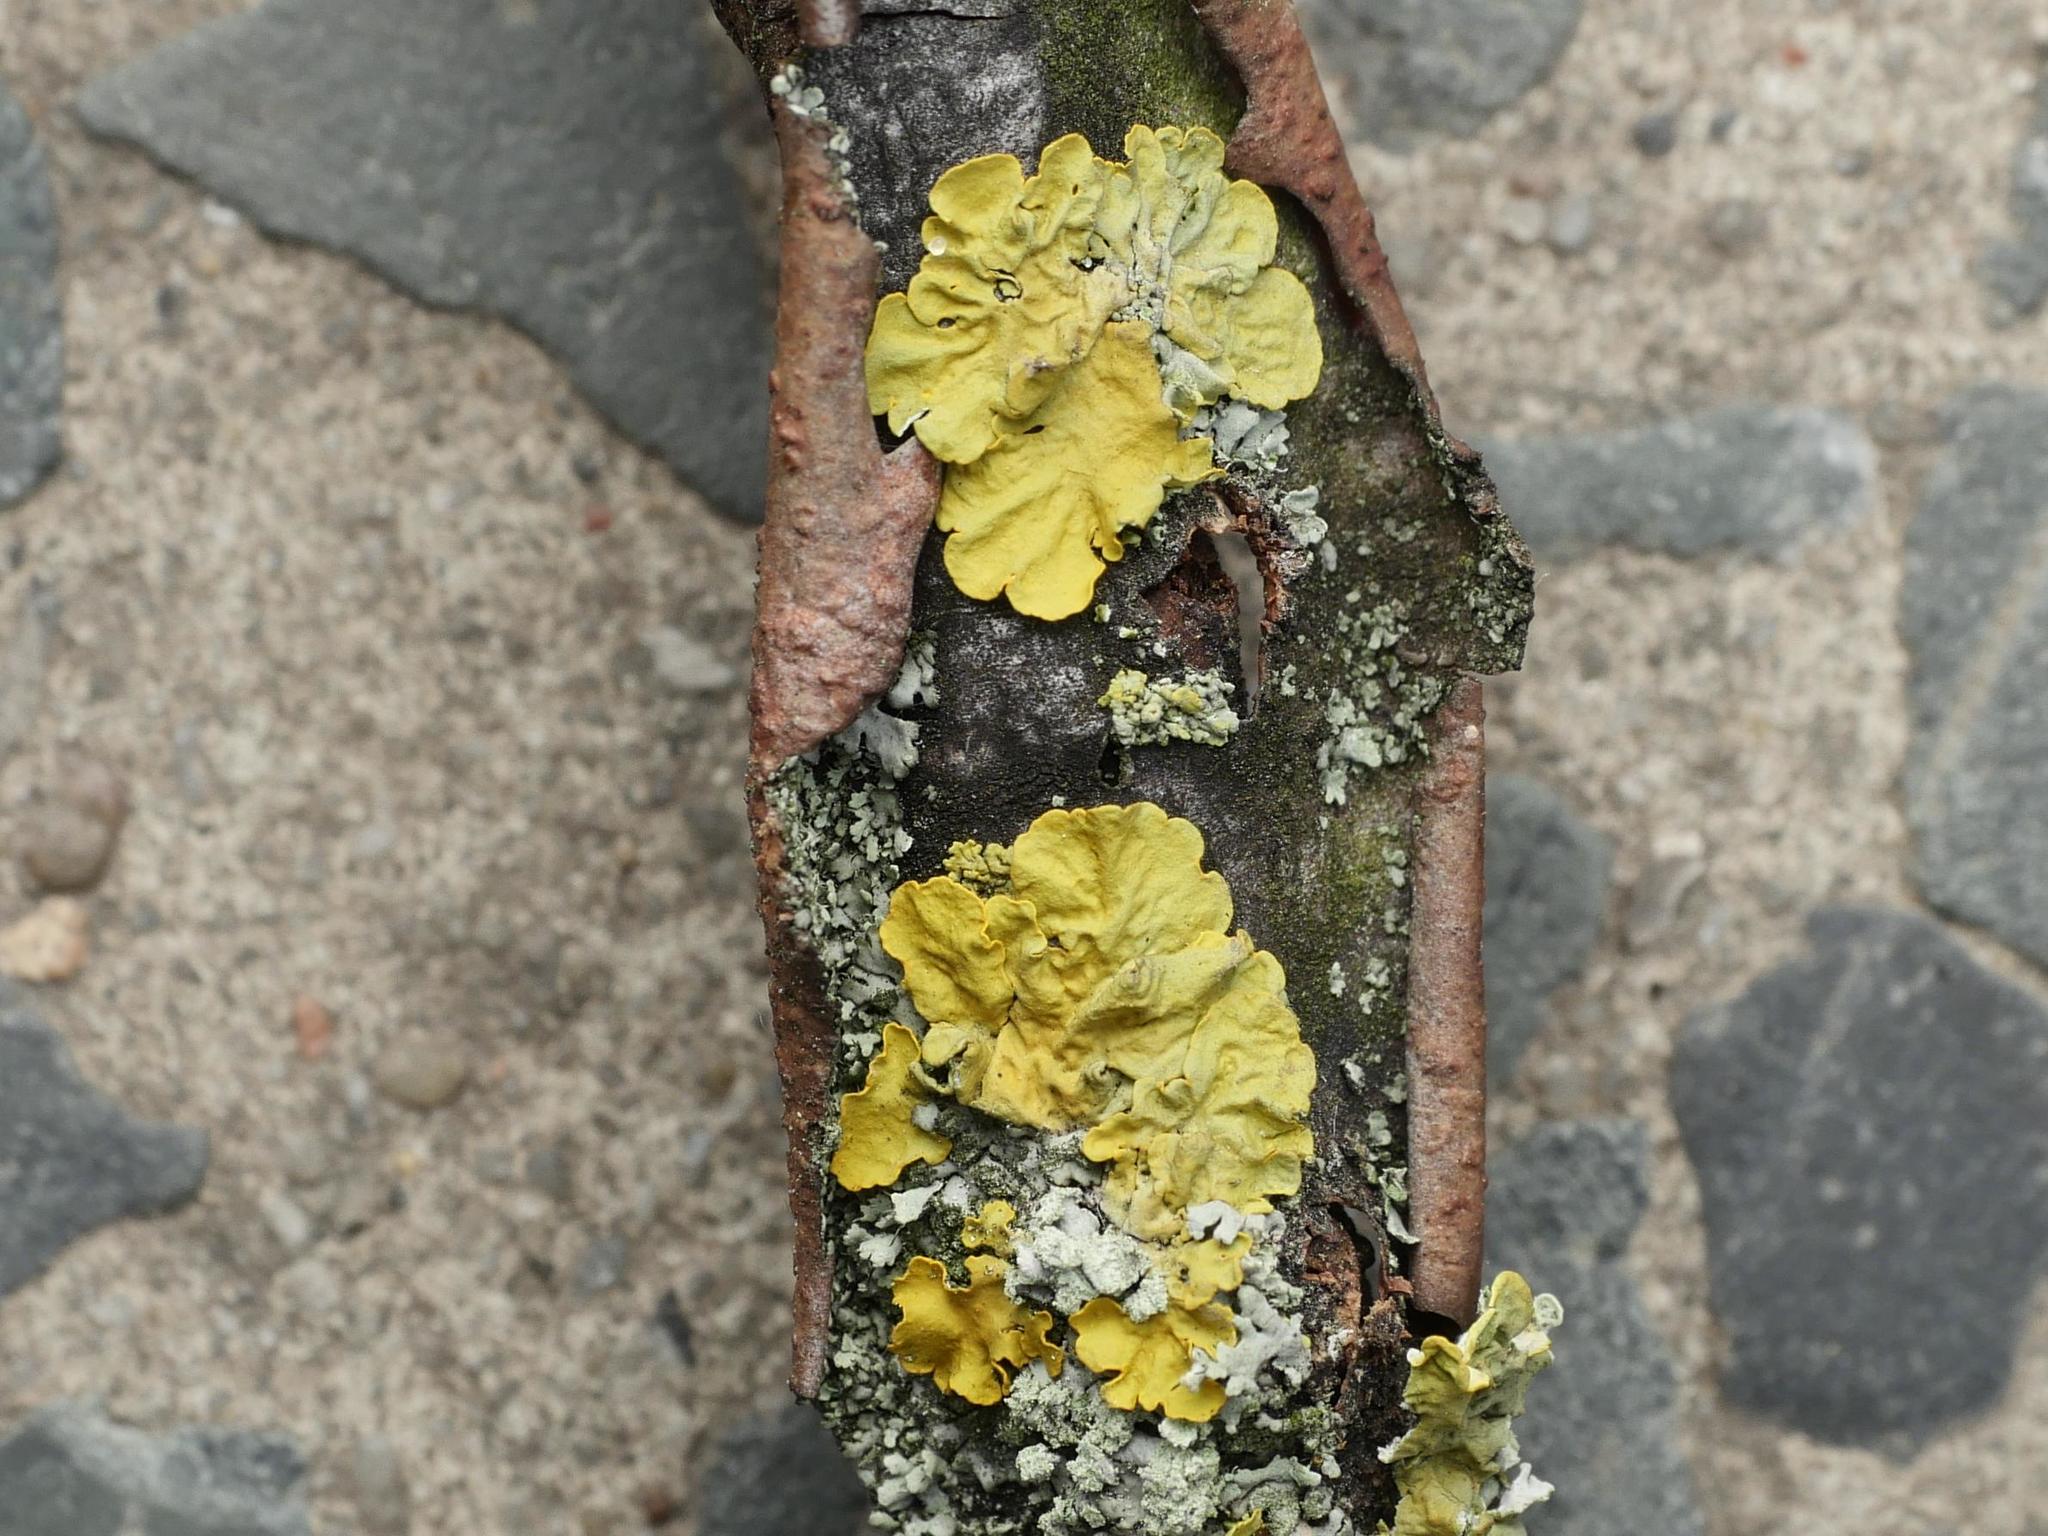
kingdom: Fungi
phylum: Ascomycota
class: Lecanoromycetes
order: Teloschistales
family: Teloschistaceae
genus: Xanthoria
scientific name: Xanthoria parietina
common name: Common orange lichen
